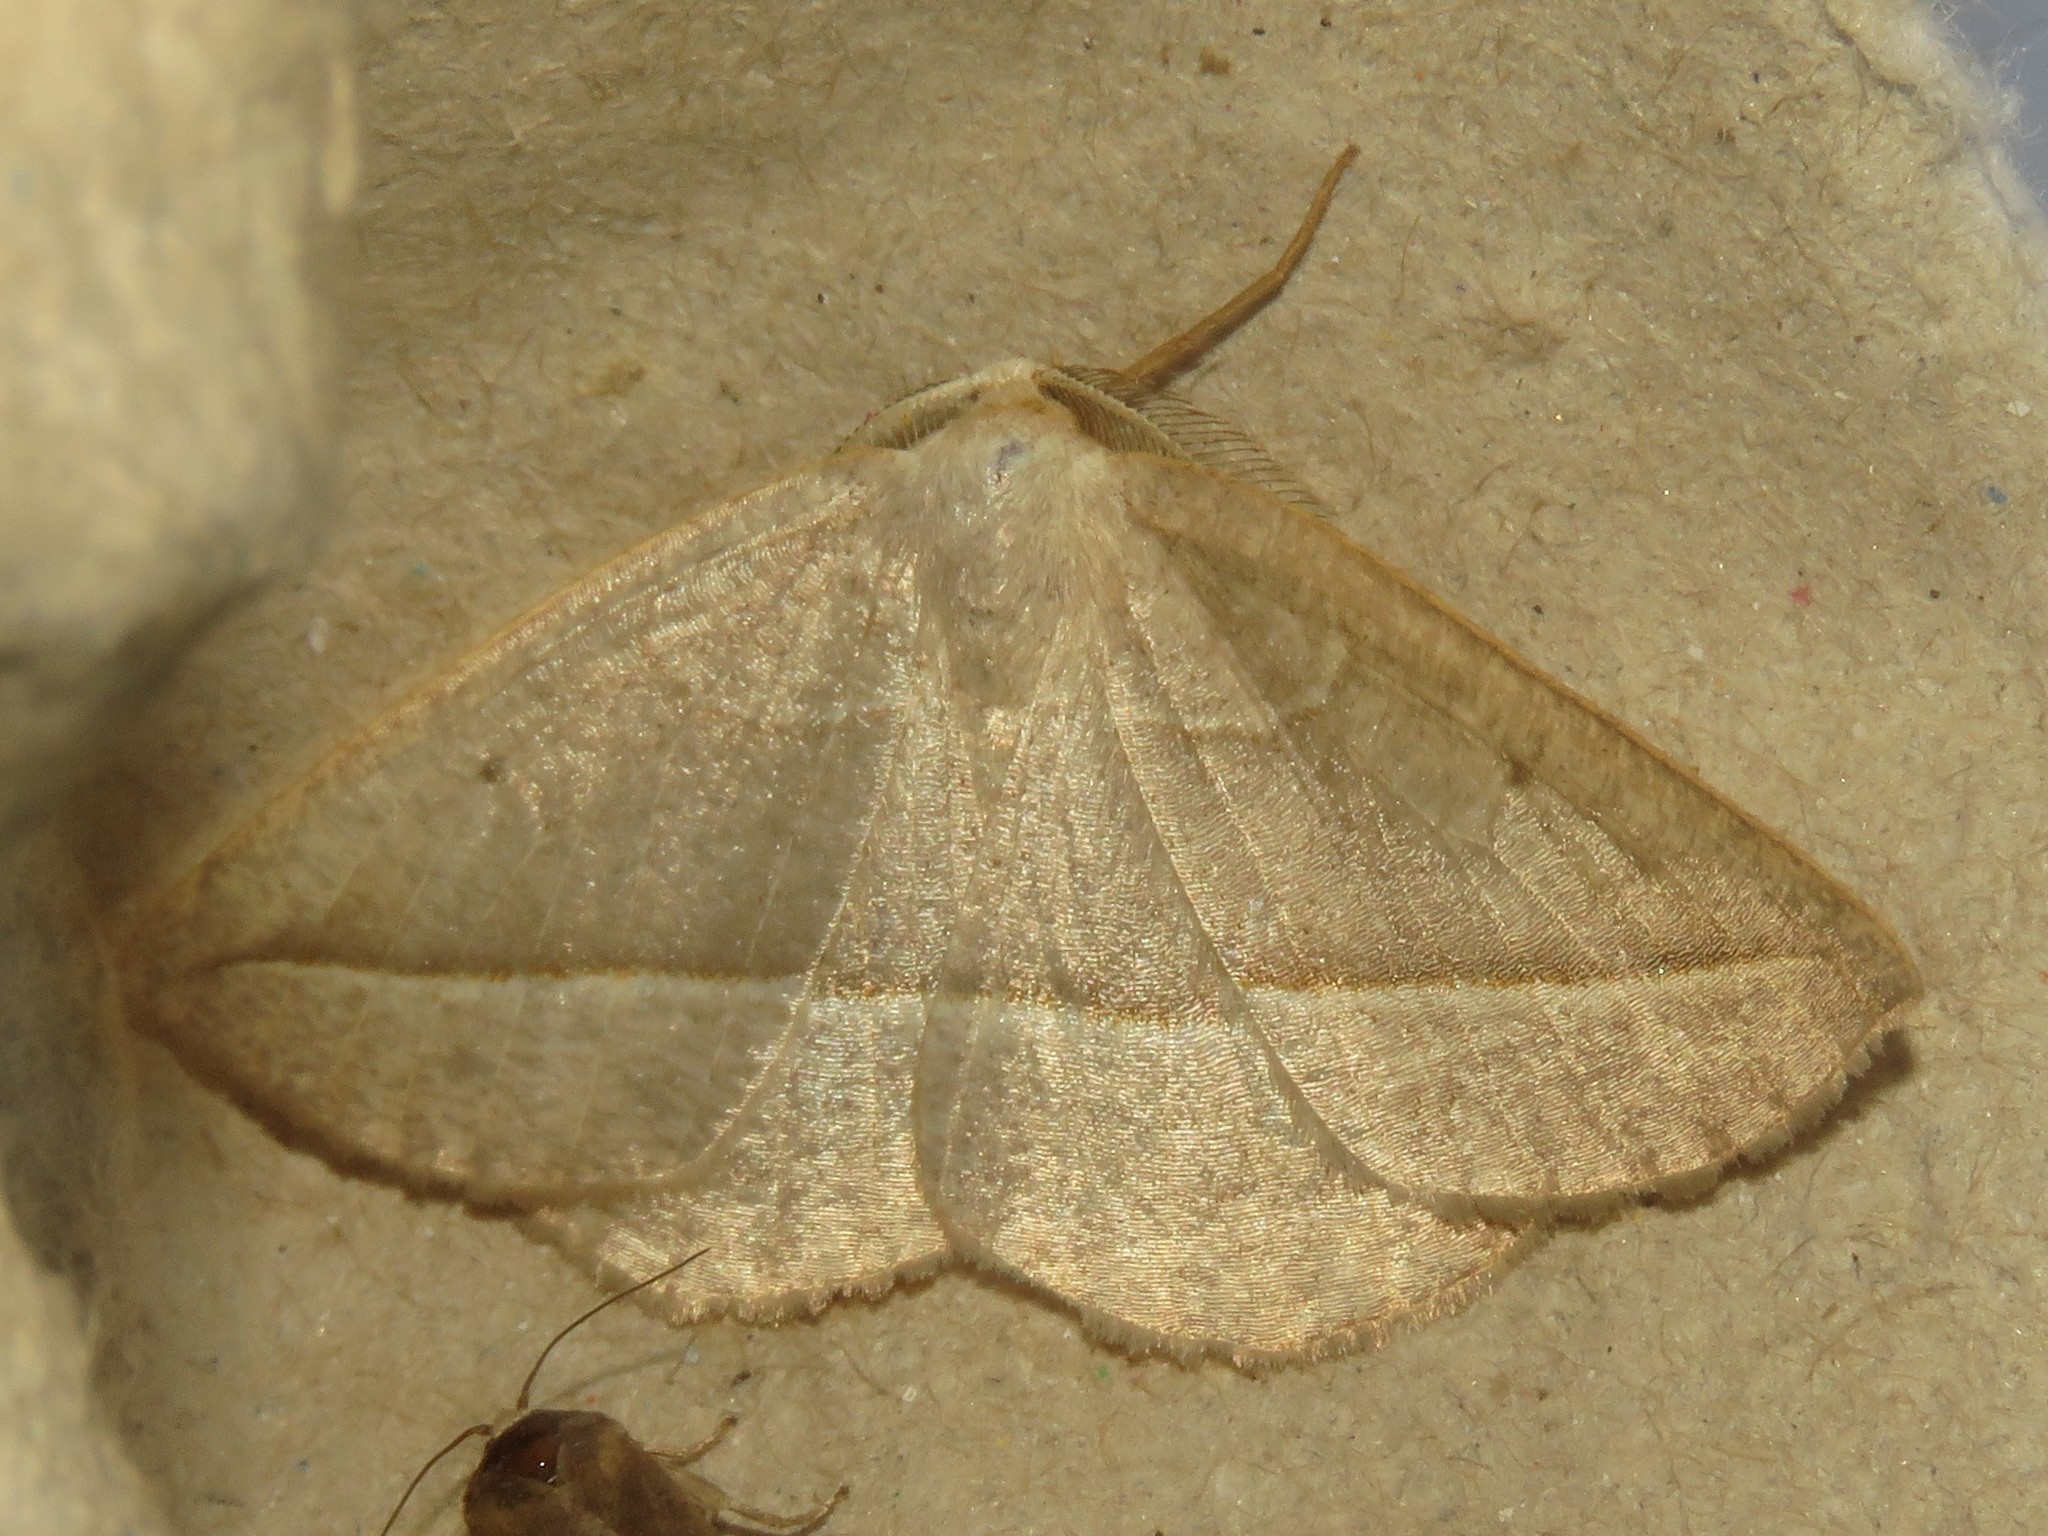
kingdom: Animalia
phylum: Arthropoda
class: Insecta
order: Lepidoptera
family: Geometridae
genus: Eusarca
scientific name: Eusarca confusaria
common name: Confused eusarca
